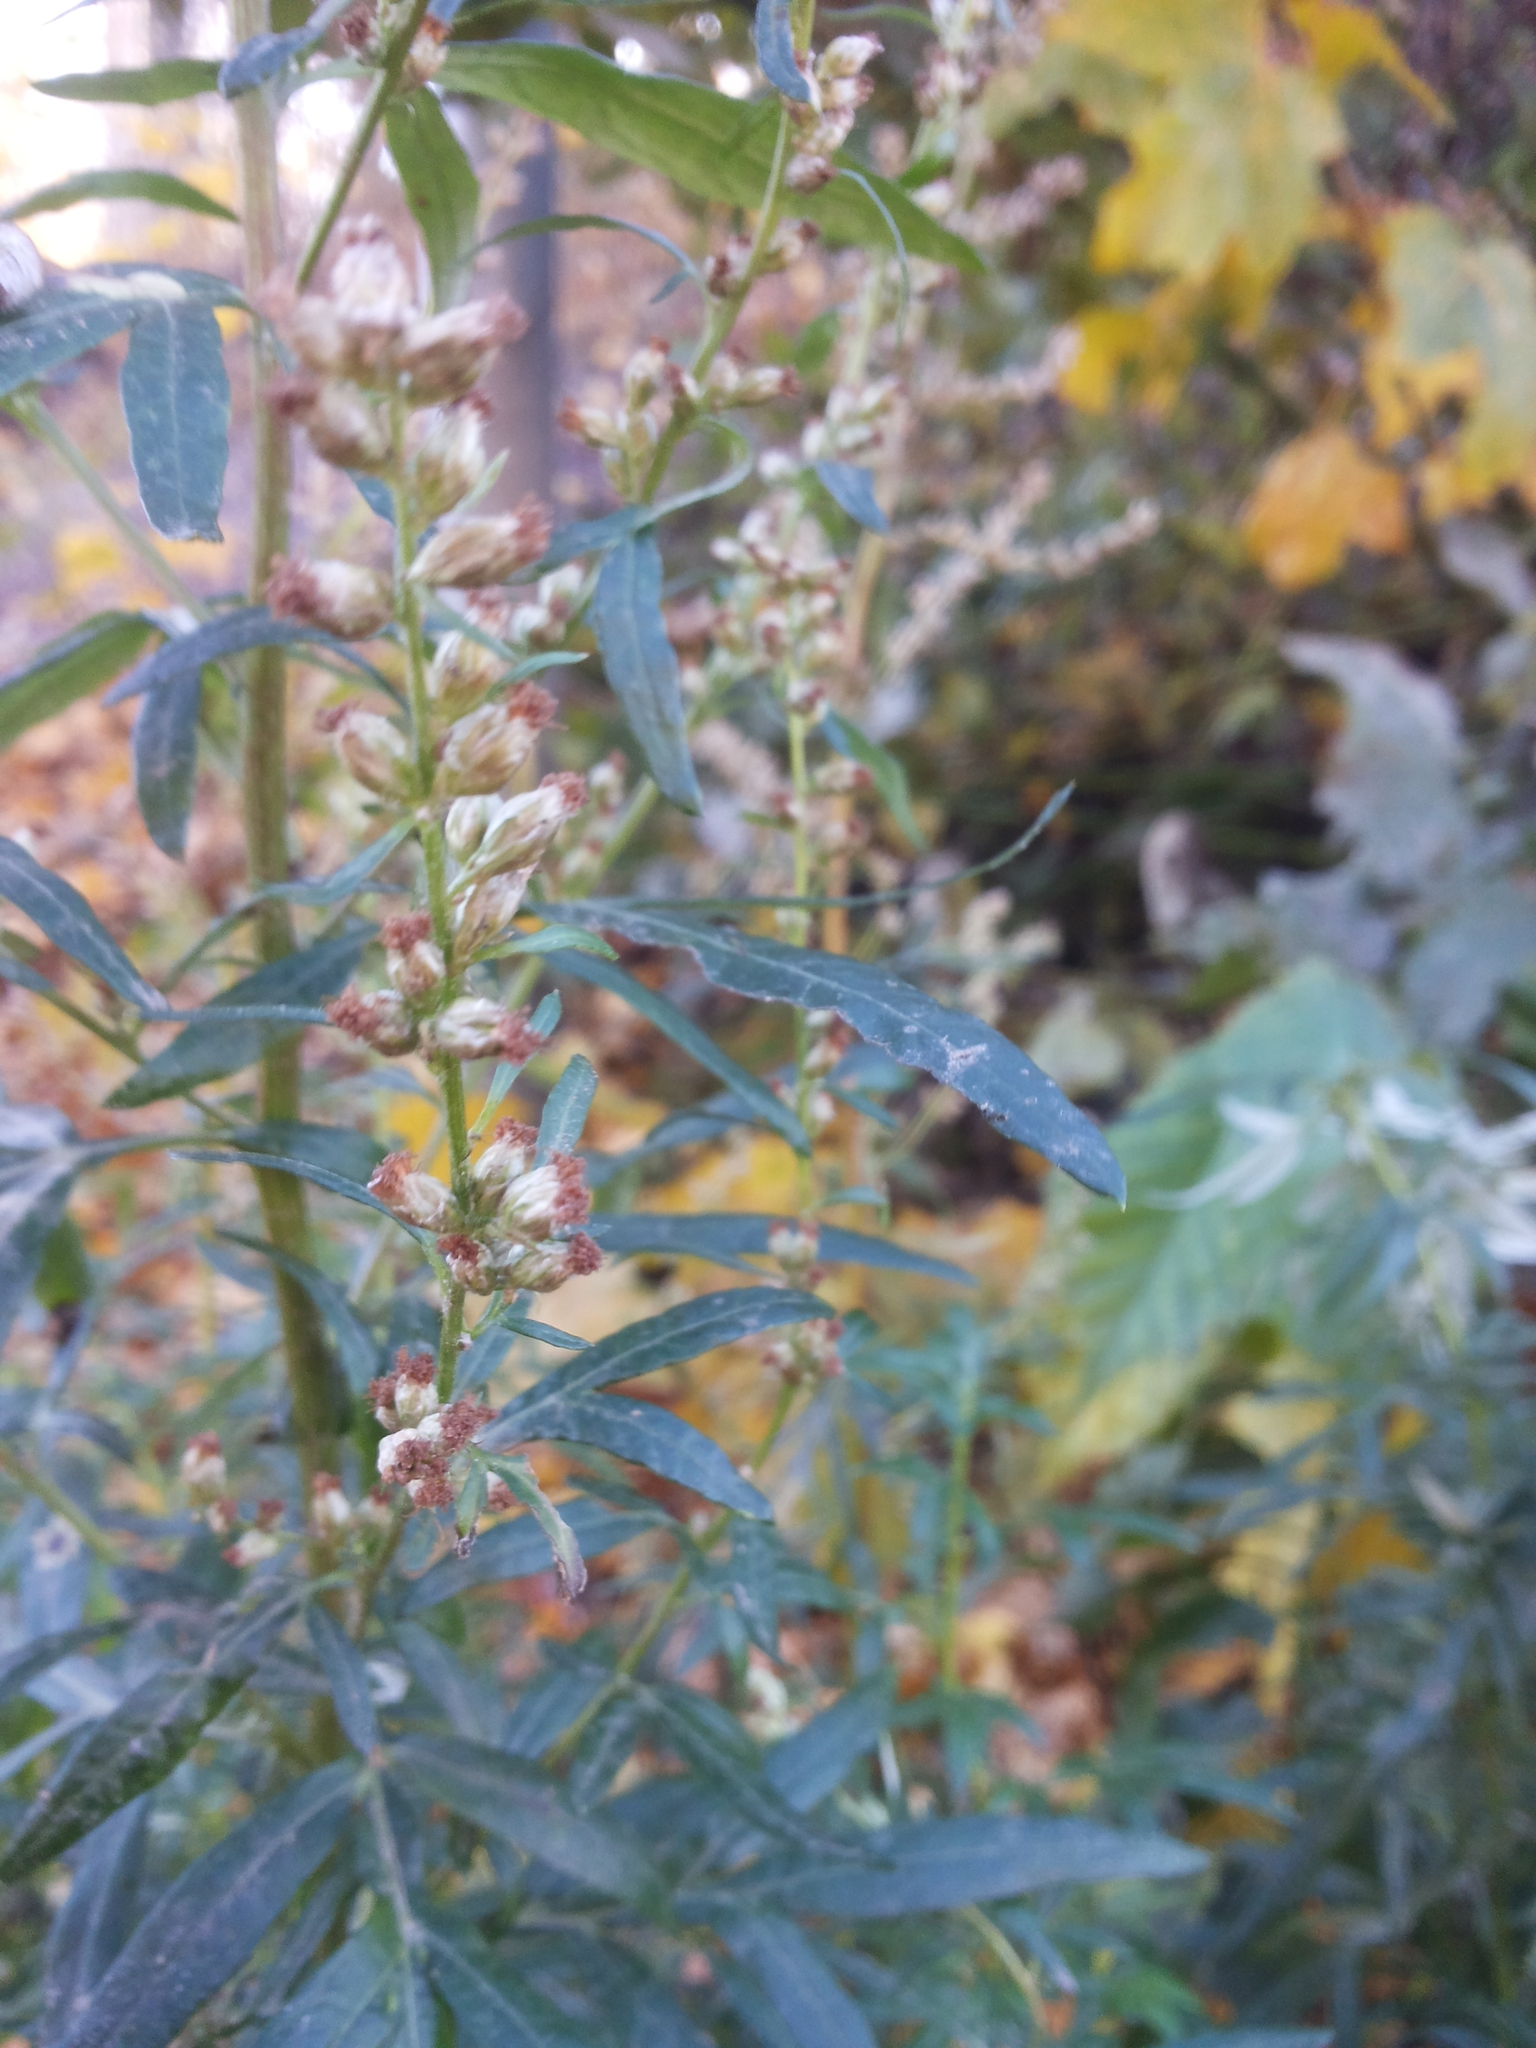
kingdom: Plantae
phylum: Tracheophyta
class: Magnoliopsida
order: Asterales
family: Asteraceae
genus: Artemisia
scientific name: Artemisia vulgaris
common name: Mugwort
